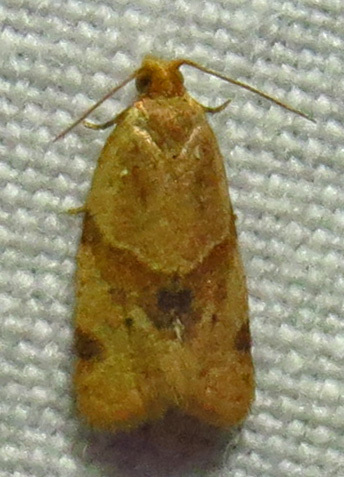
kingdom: Animalia
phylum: Arthropoda
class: Insecta
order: Lepidoptera
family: Tortricidae
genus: Clepsis
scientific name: Clepsis peritana
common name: Garden tortrix
